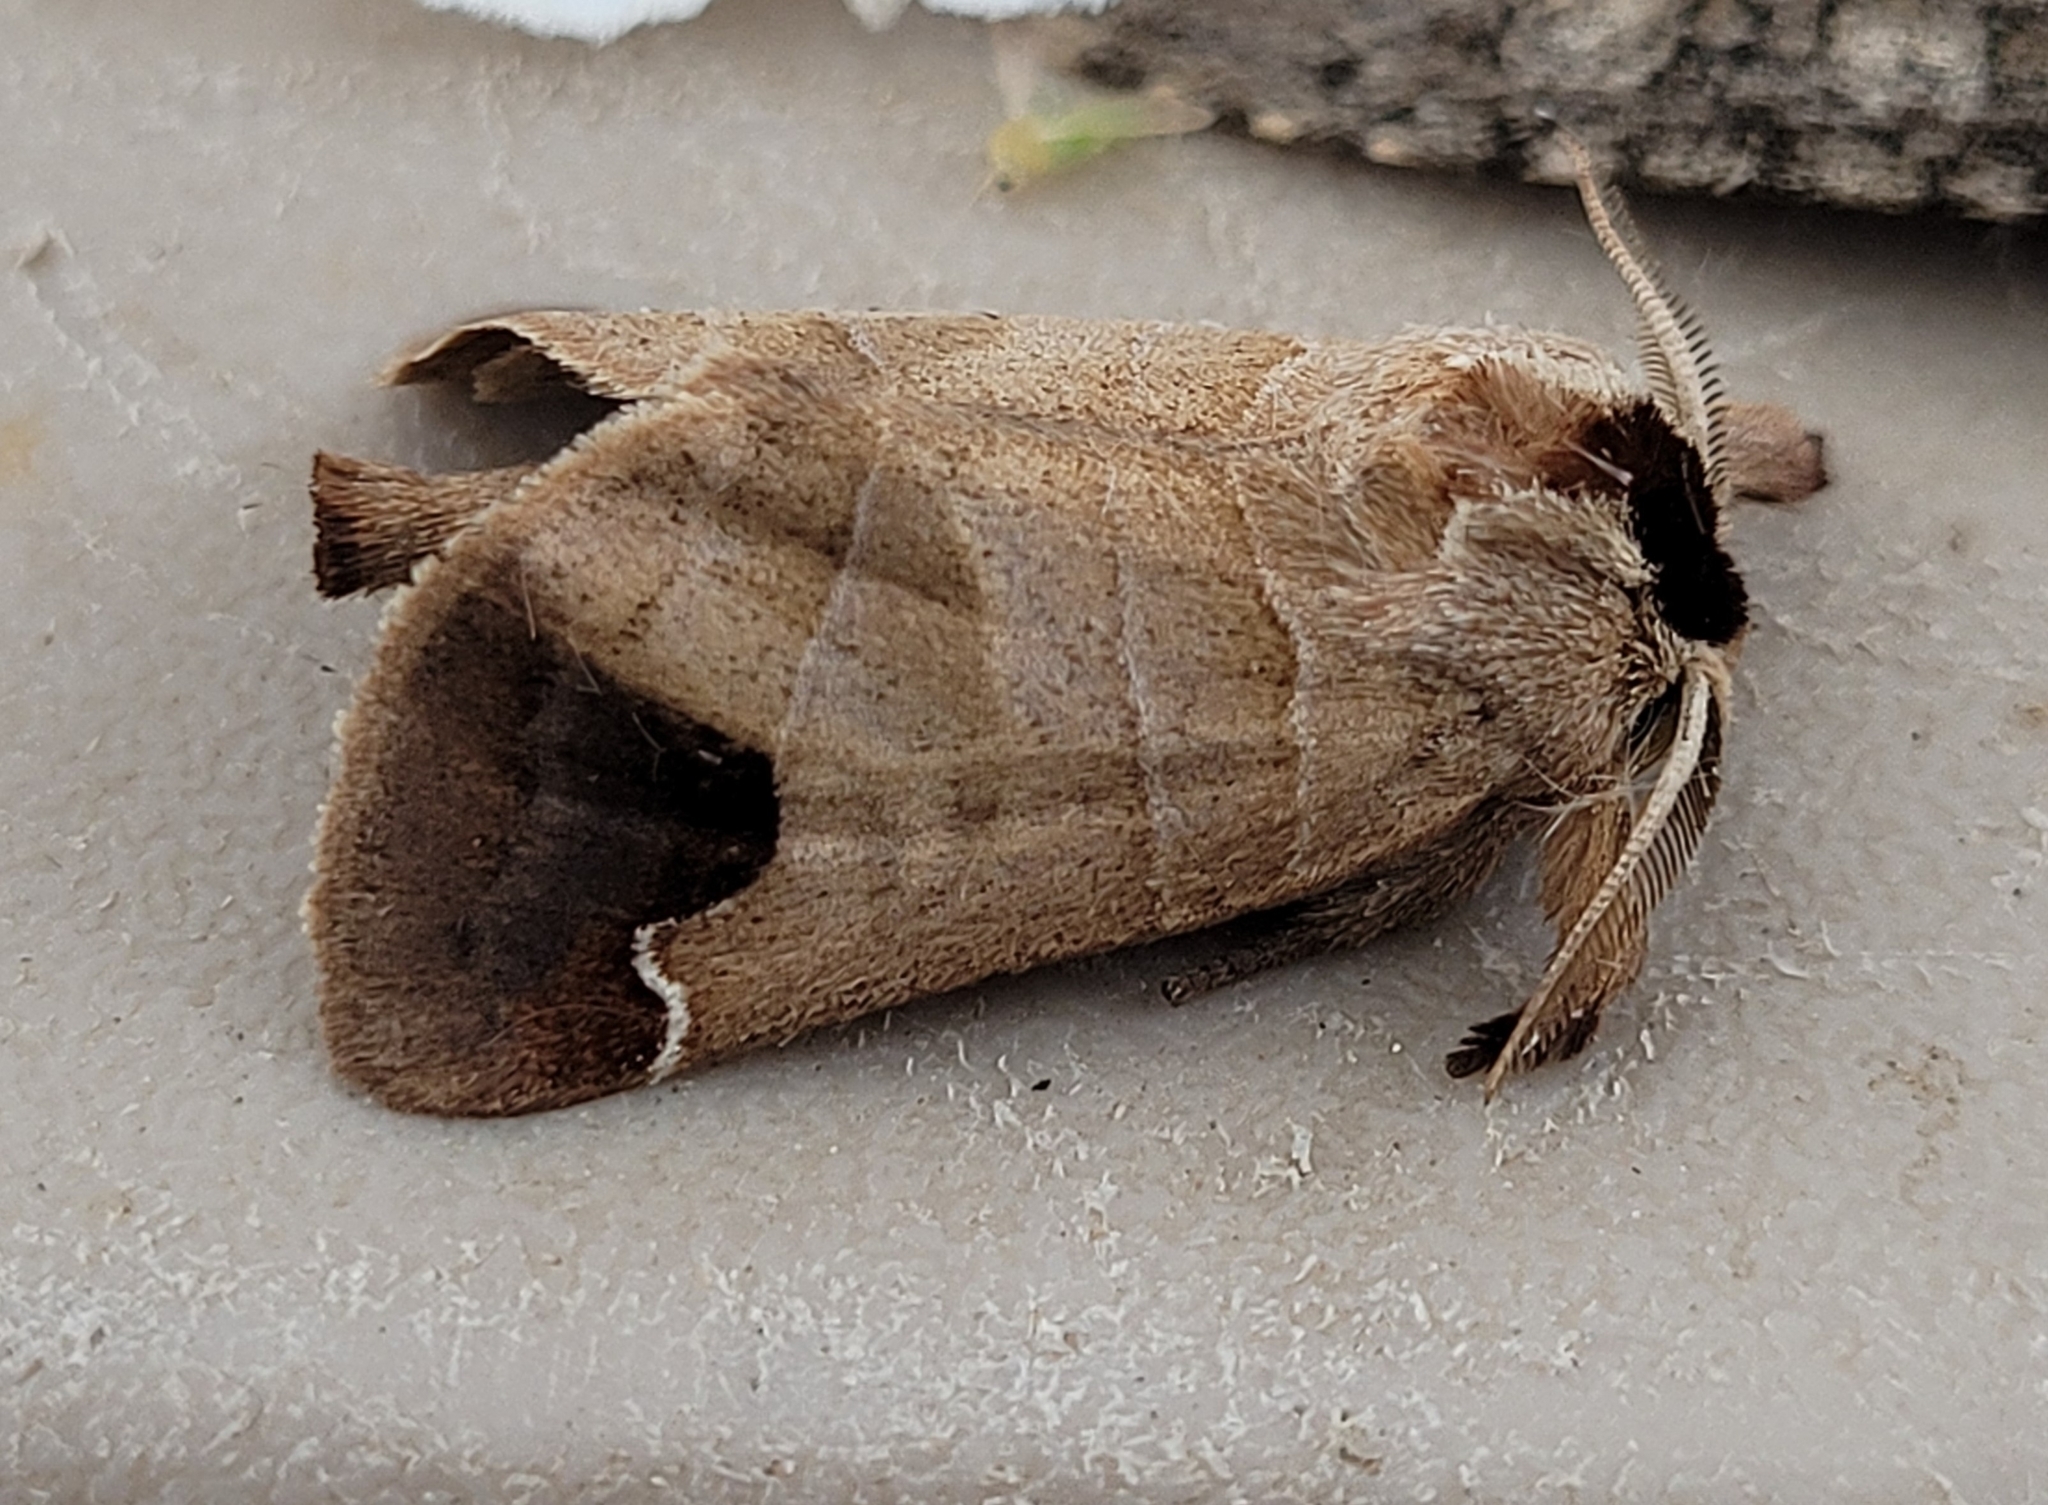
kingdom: Animalia
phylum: Arthropoda
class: Insecta
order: Lepidoptera
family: Notodontidae
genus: Clostera
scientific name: Clostera albosigma
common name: Sigmoid prominent
